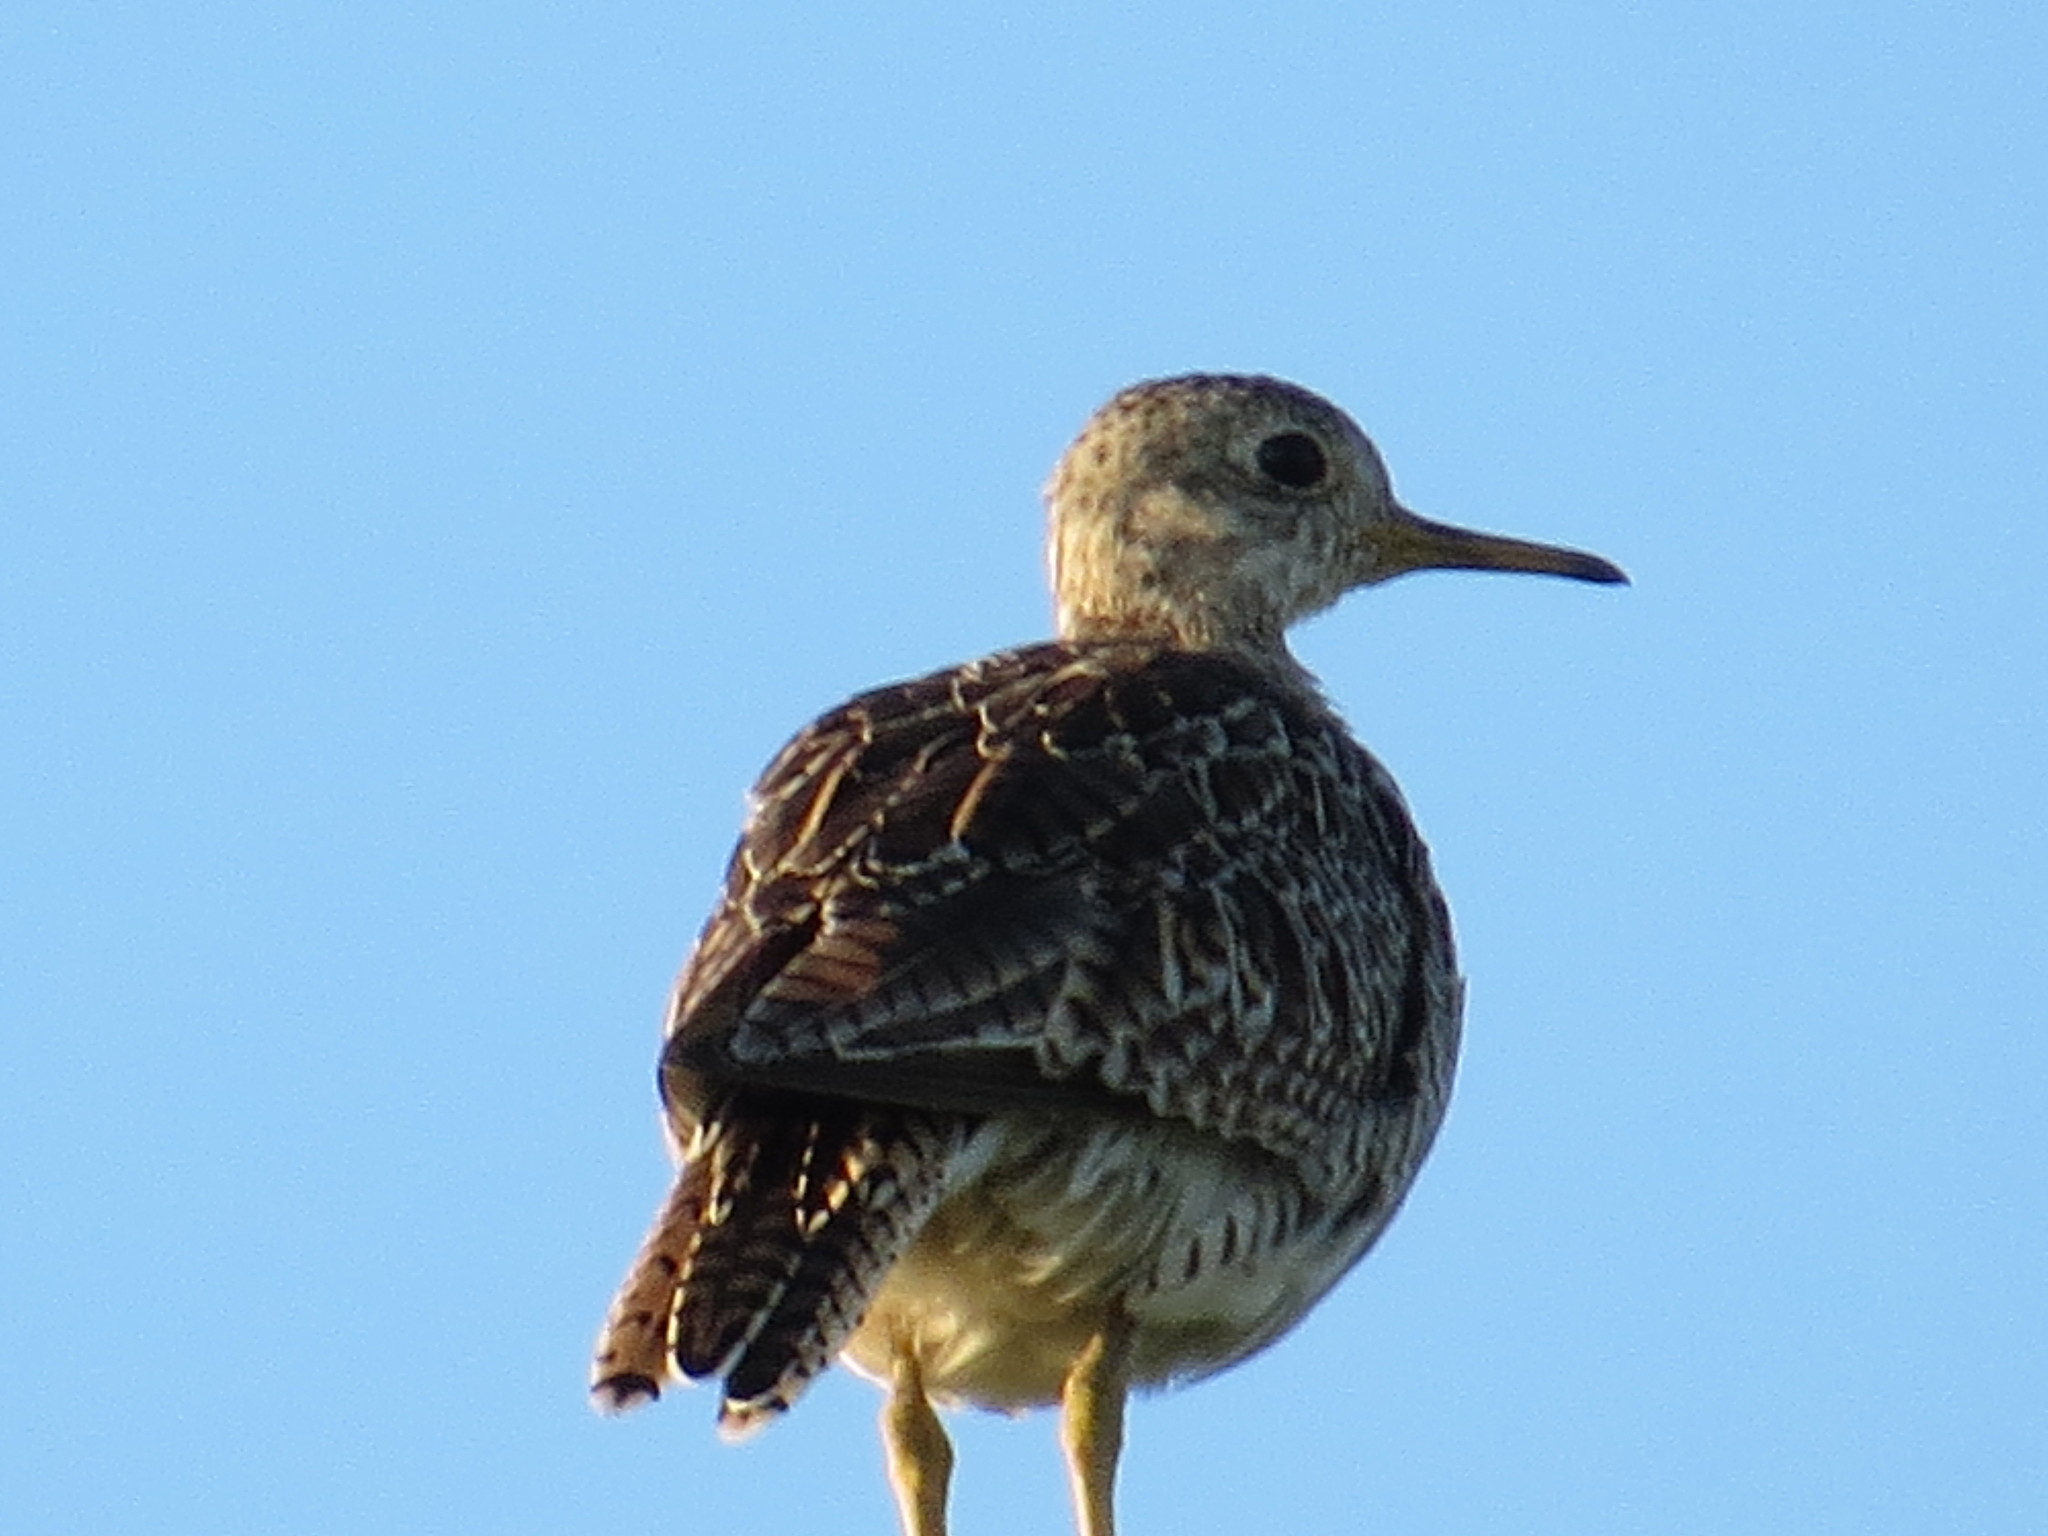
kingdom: Animalia
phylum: Chordata
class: Aves
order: Charadriiformes
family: Scolopacidae
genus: Bartramia
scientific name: Bartramia longicauda
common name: Upland sandpiper
